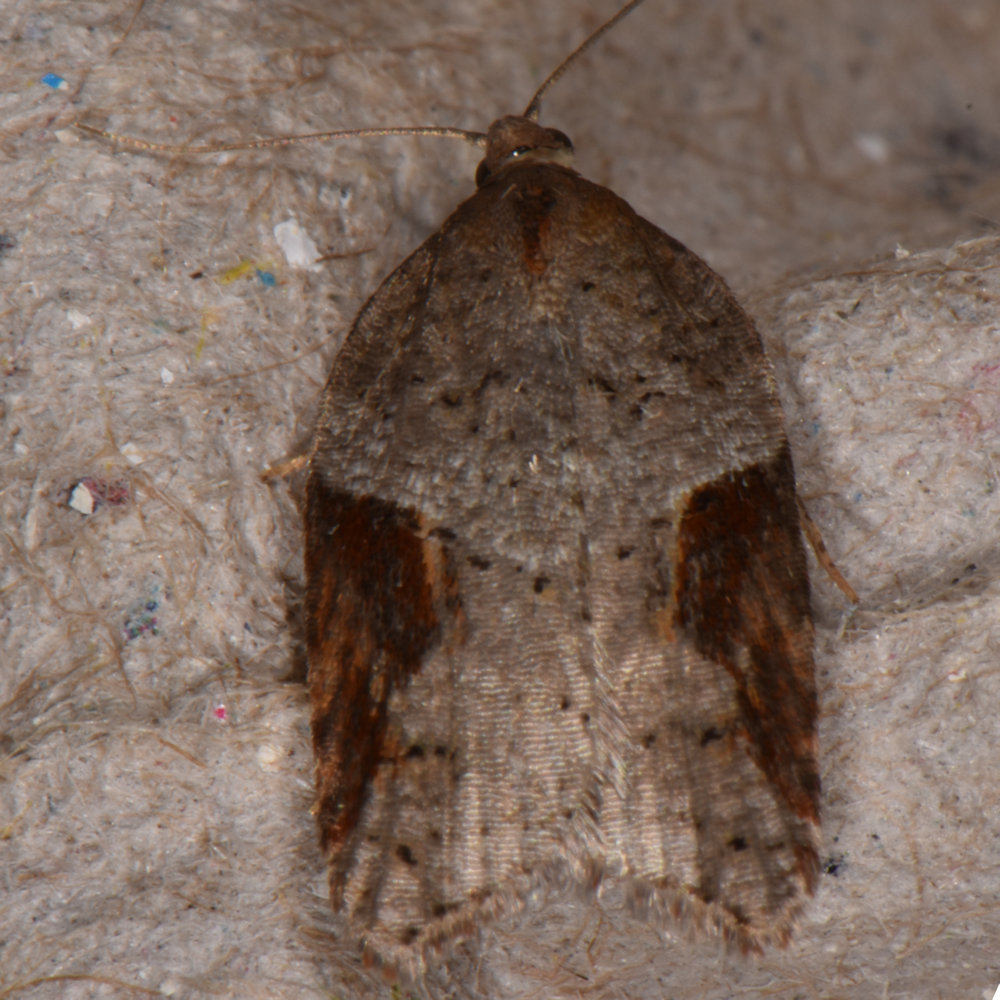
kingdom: Animalia
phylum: Arthropoda
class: Insecta
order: Lepidoptera
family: Tortricidae
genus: Acleris
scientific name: Acleris macdunnoughi
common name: Macdunnough's acleris
